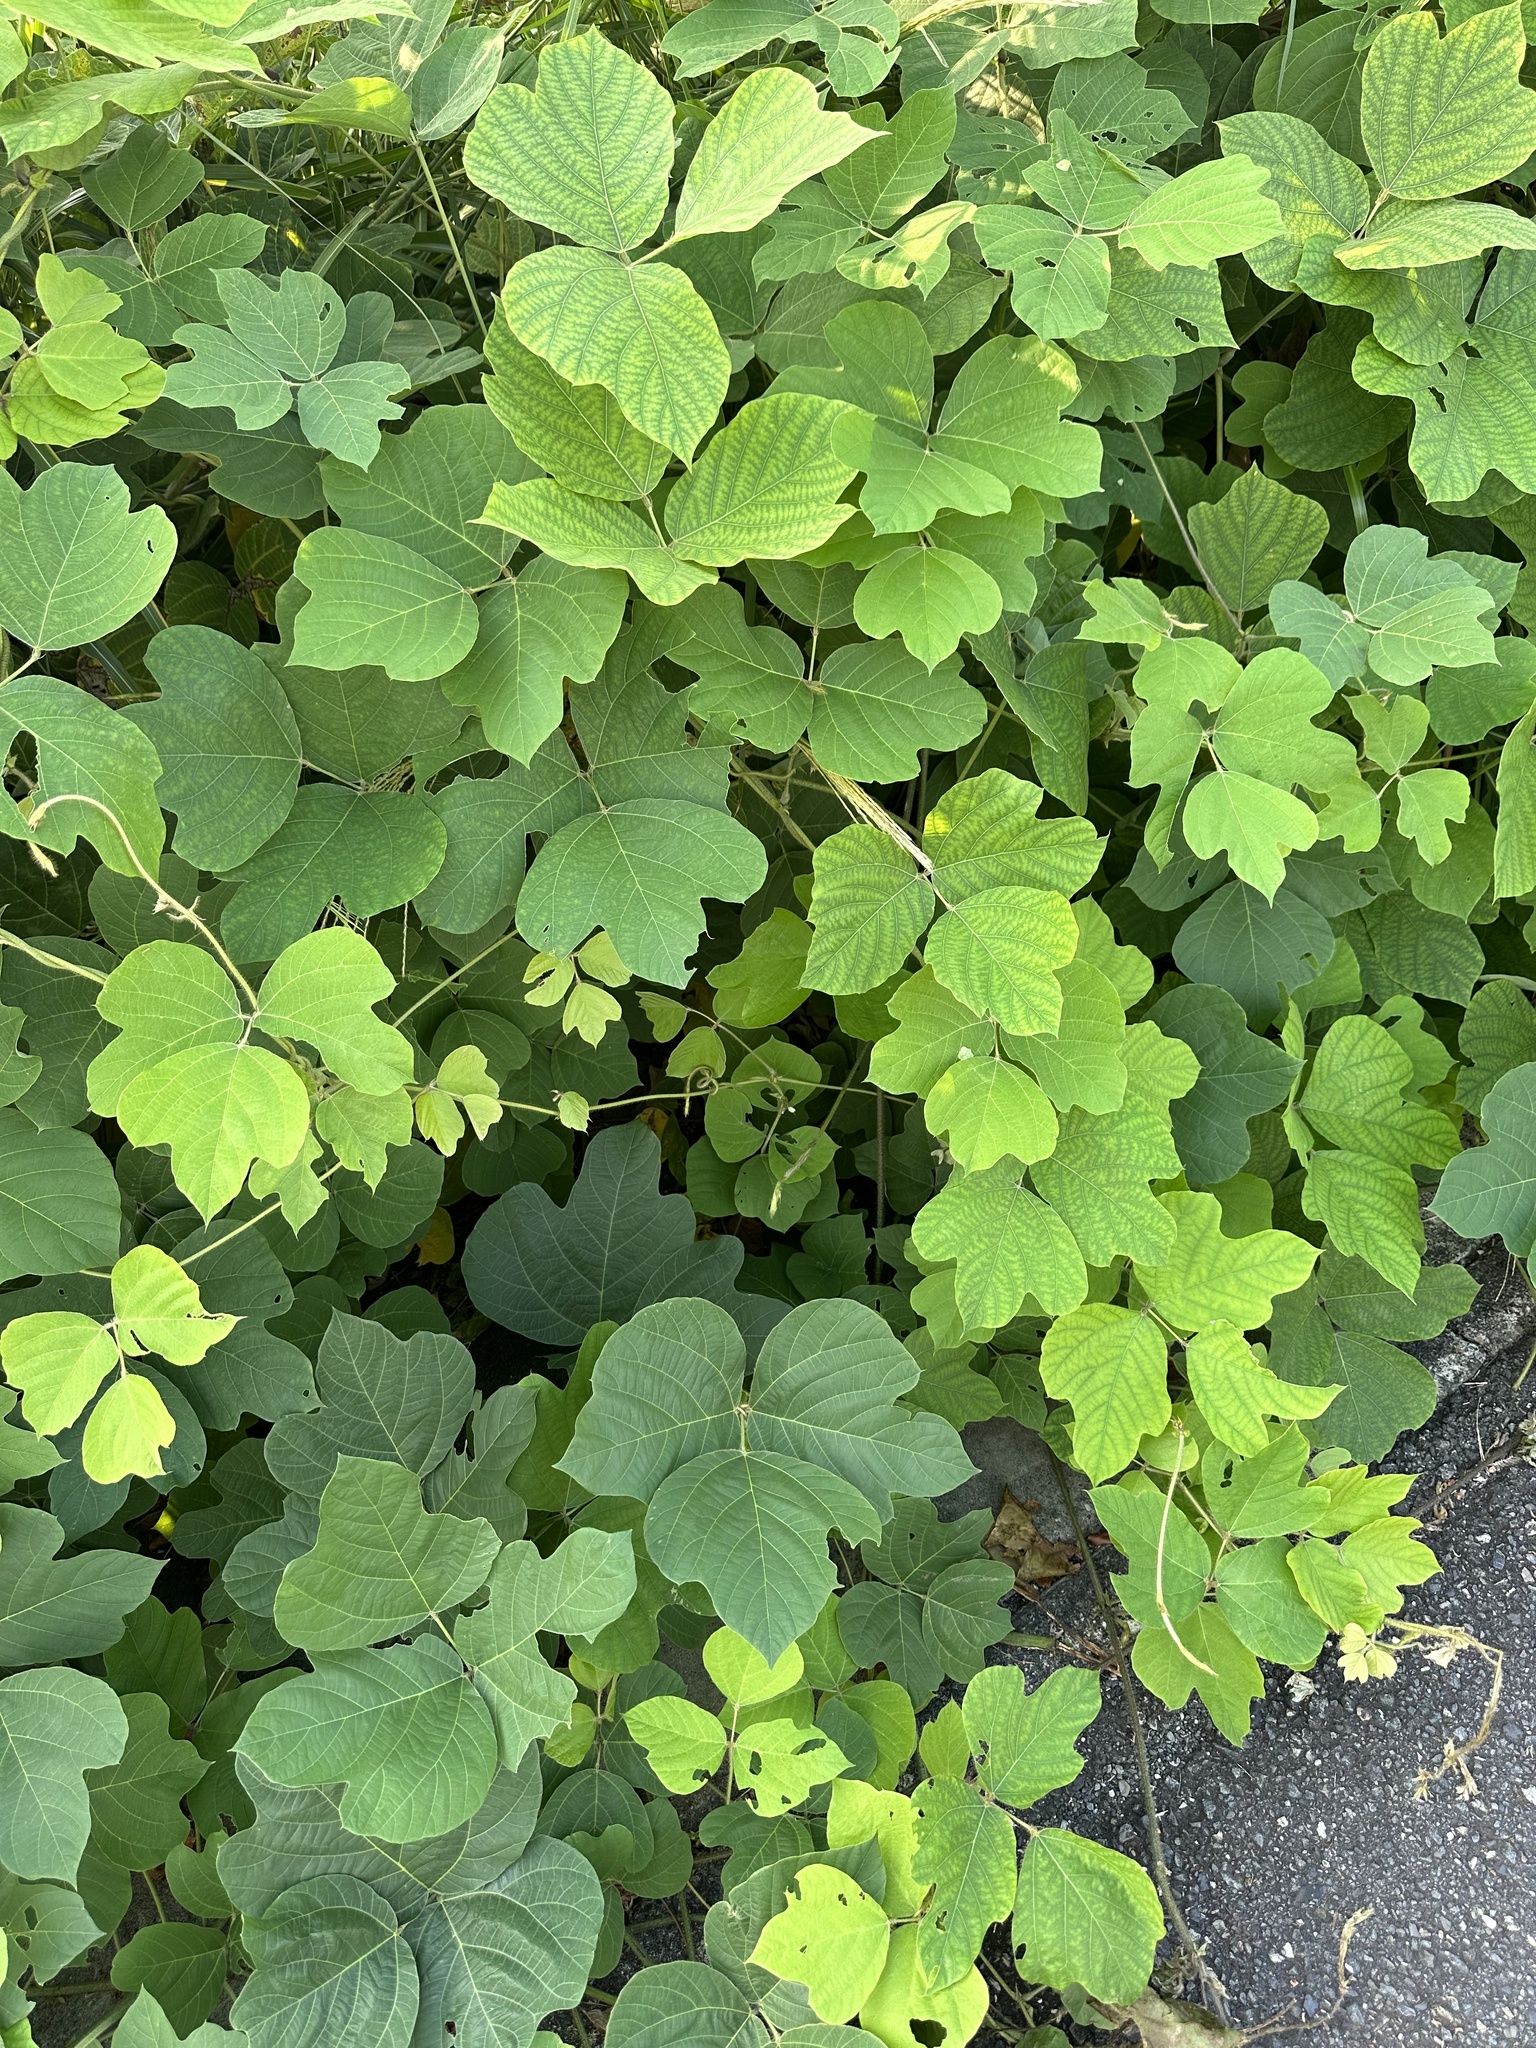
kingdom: Plantae
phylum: Tracheophyta
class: Magnoliopsida
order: Fabales
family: Fabaceae
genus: Pueraria
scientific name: Pueraria montana
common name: Kudzu
